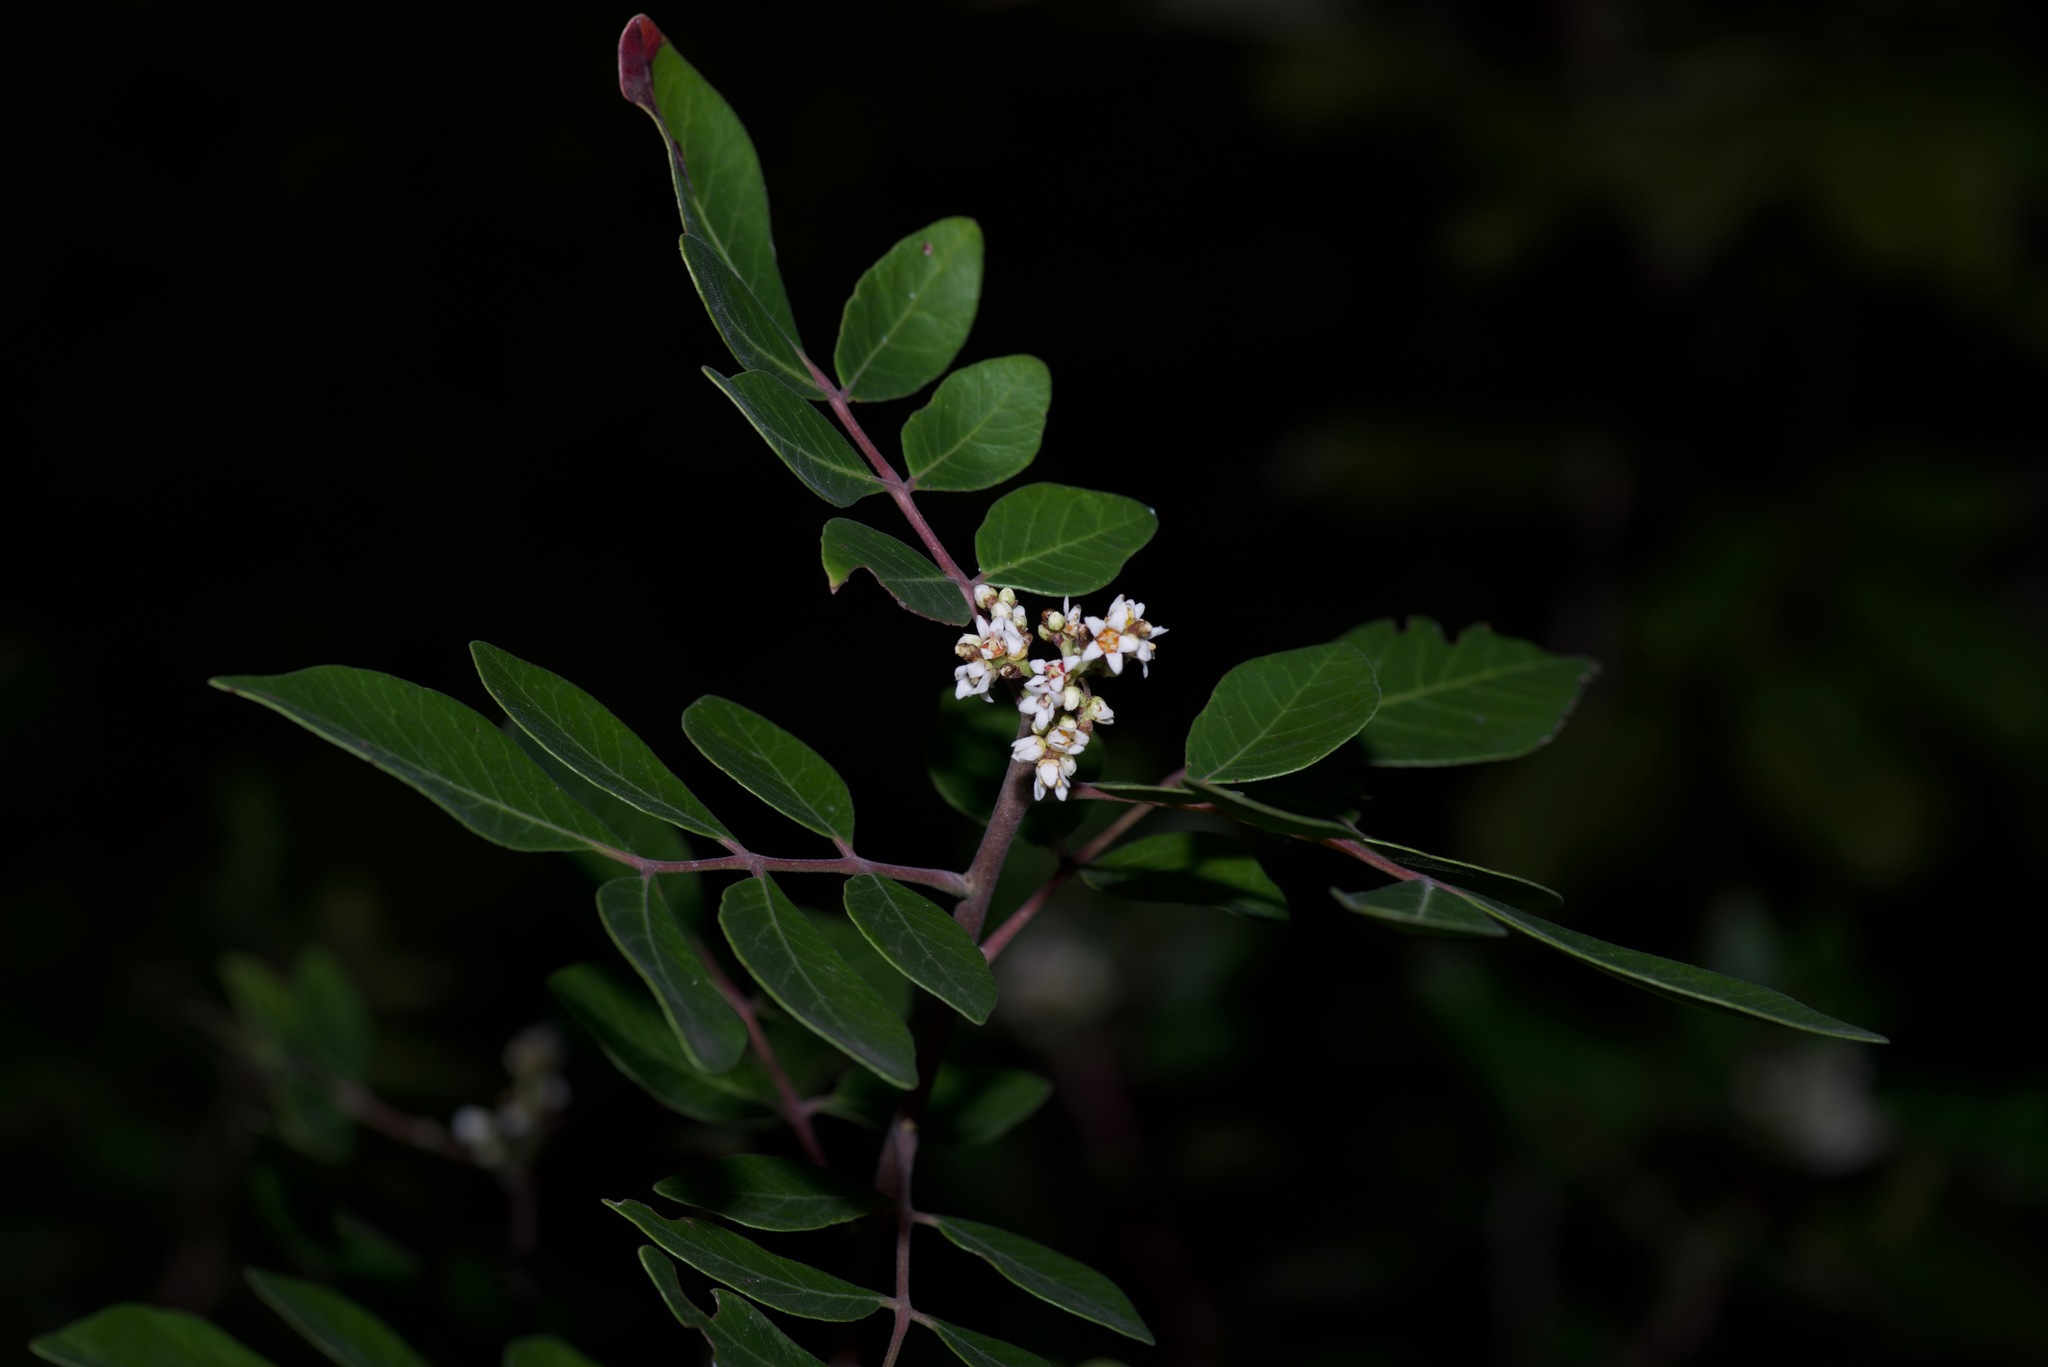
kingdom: Plantae
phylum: Tracheophyta
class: Magnoliopsida
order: Sapindales
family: Anacardiaceae
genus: Rhus
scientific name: Rhus virens
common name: Evergreen sumac
